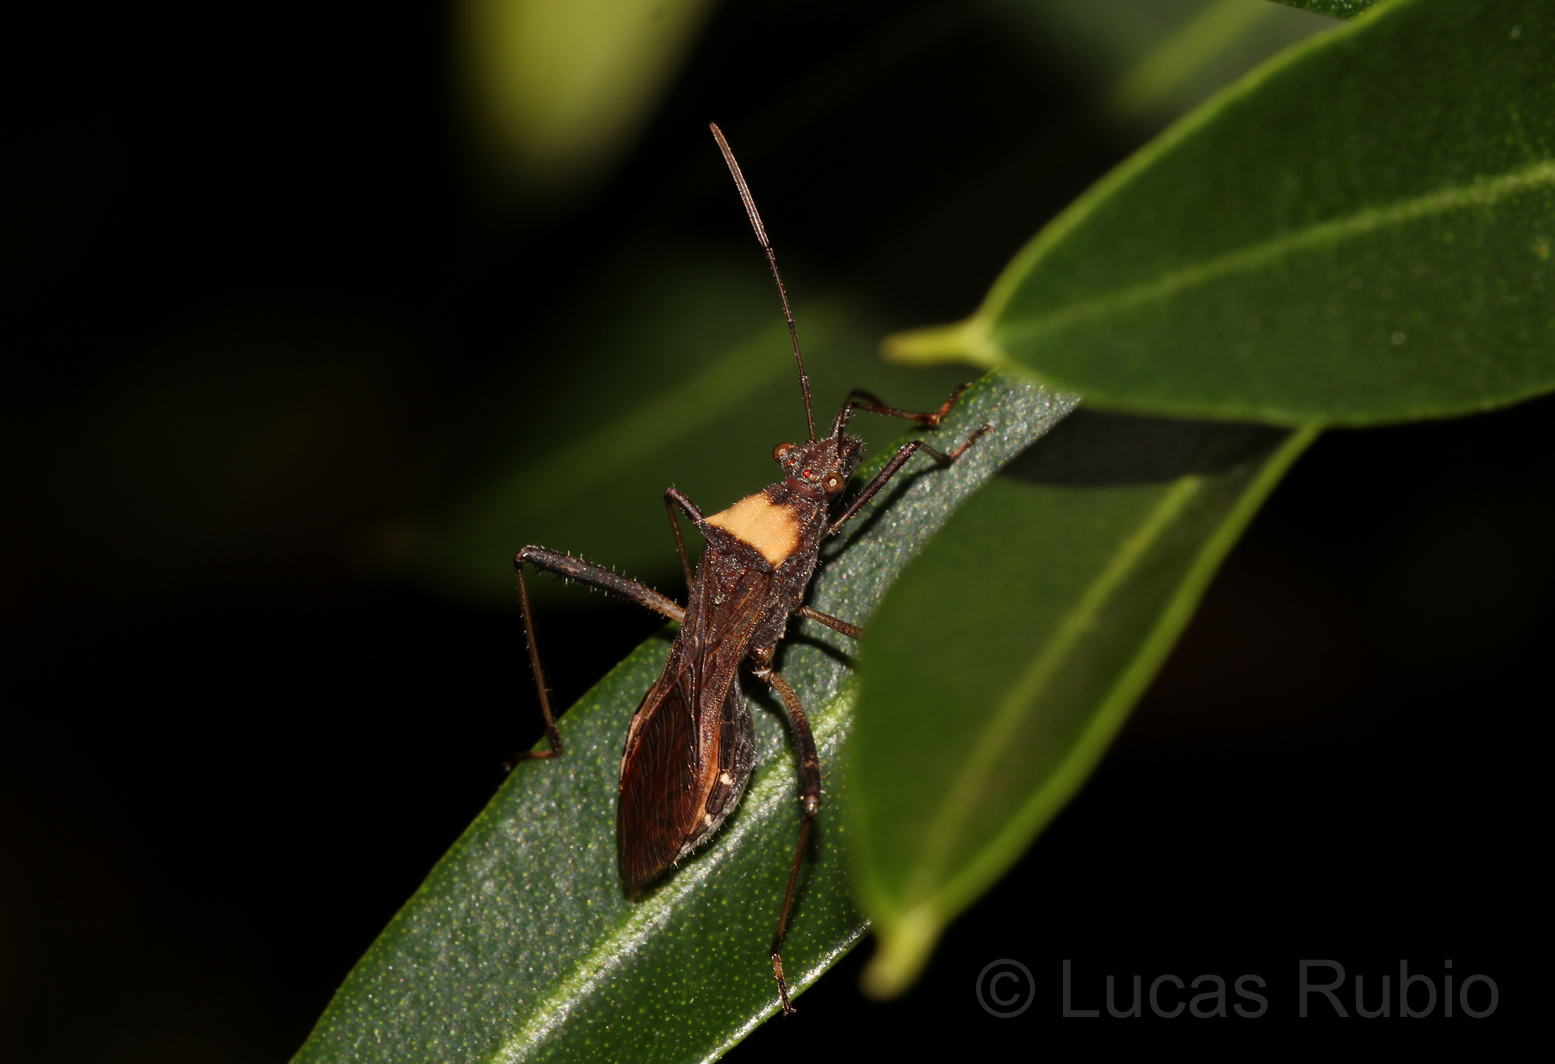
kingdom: Animalia
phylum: Arthropoda
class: Insecta
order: Hemiptera
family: Alydidae
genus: Neomegalotomus
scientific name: Neomegalotomus parvus
